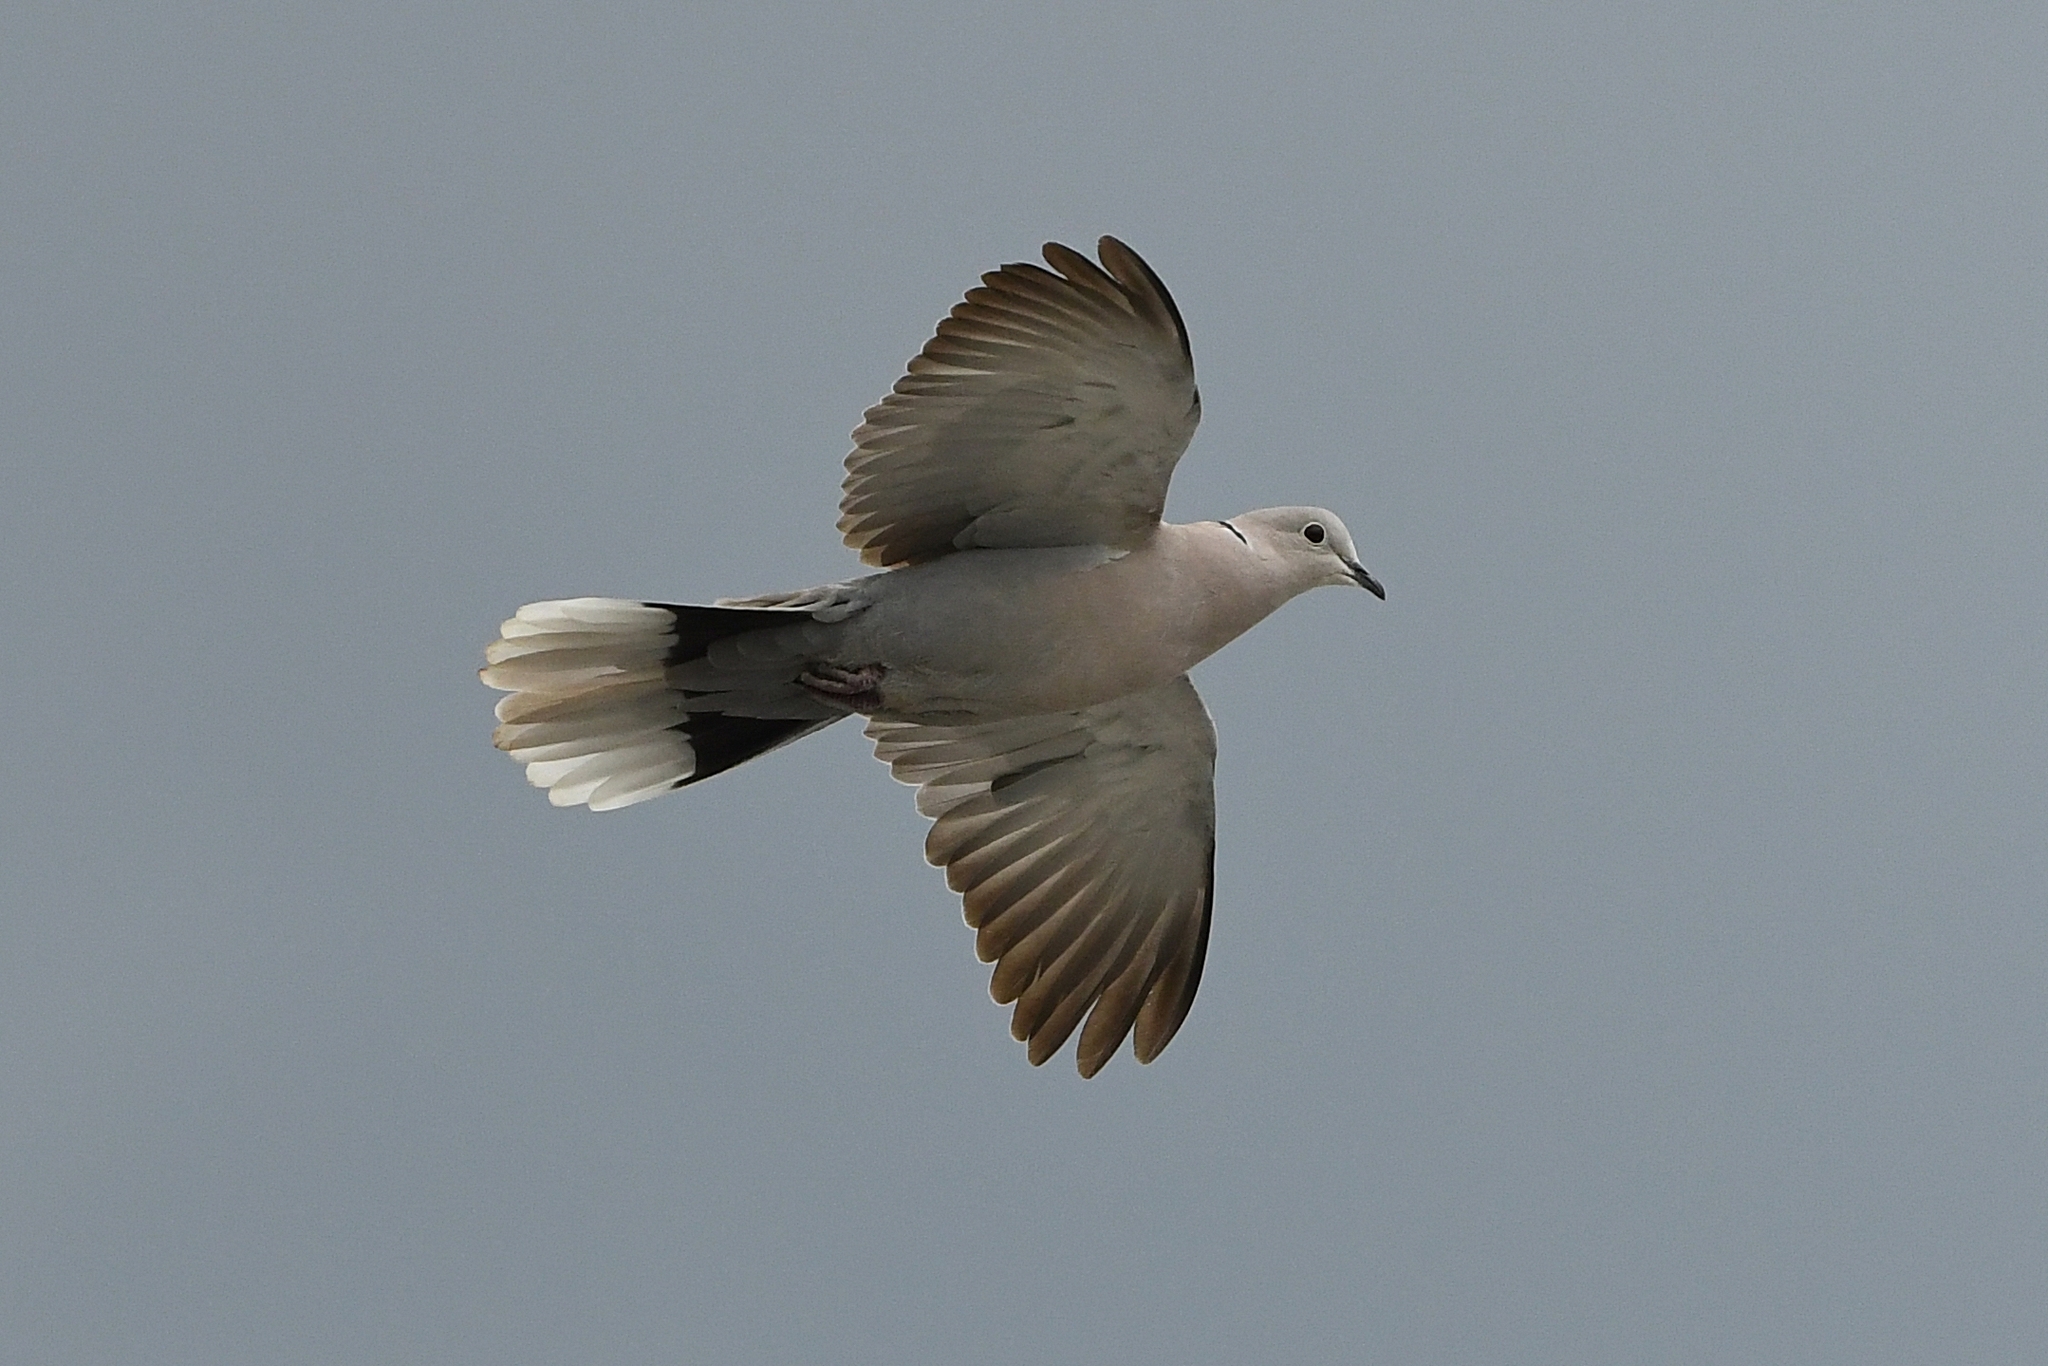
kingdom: Animalia
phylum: Chordata
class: Aves
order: Columbiformes
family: Columbidae
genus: Streptopelia
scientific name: Streptopelia decaocto
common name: Eurasian collared dove
